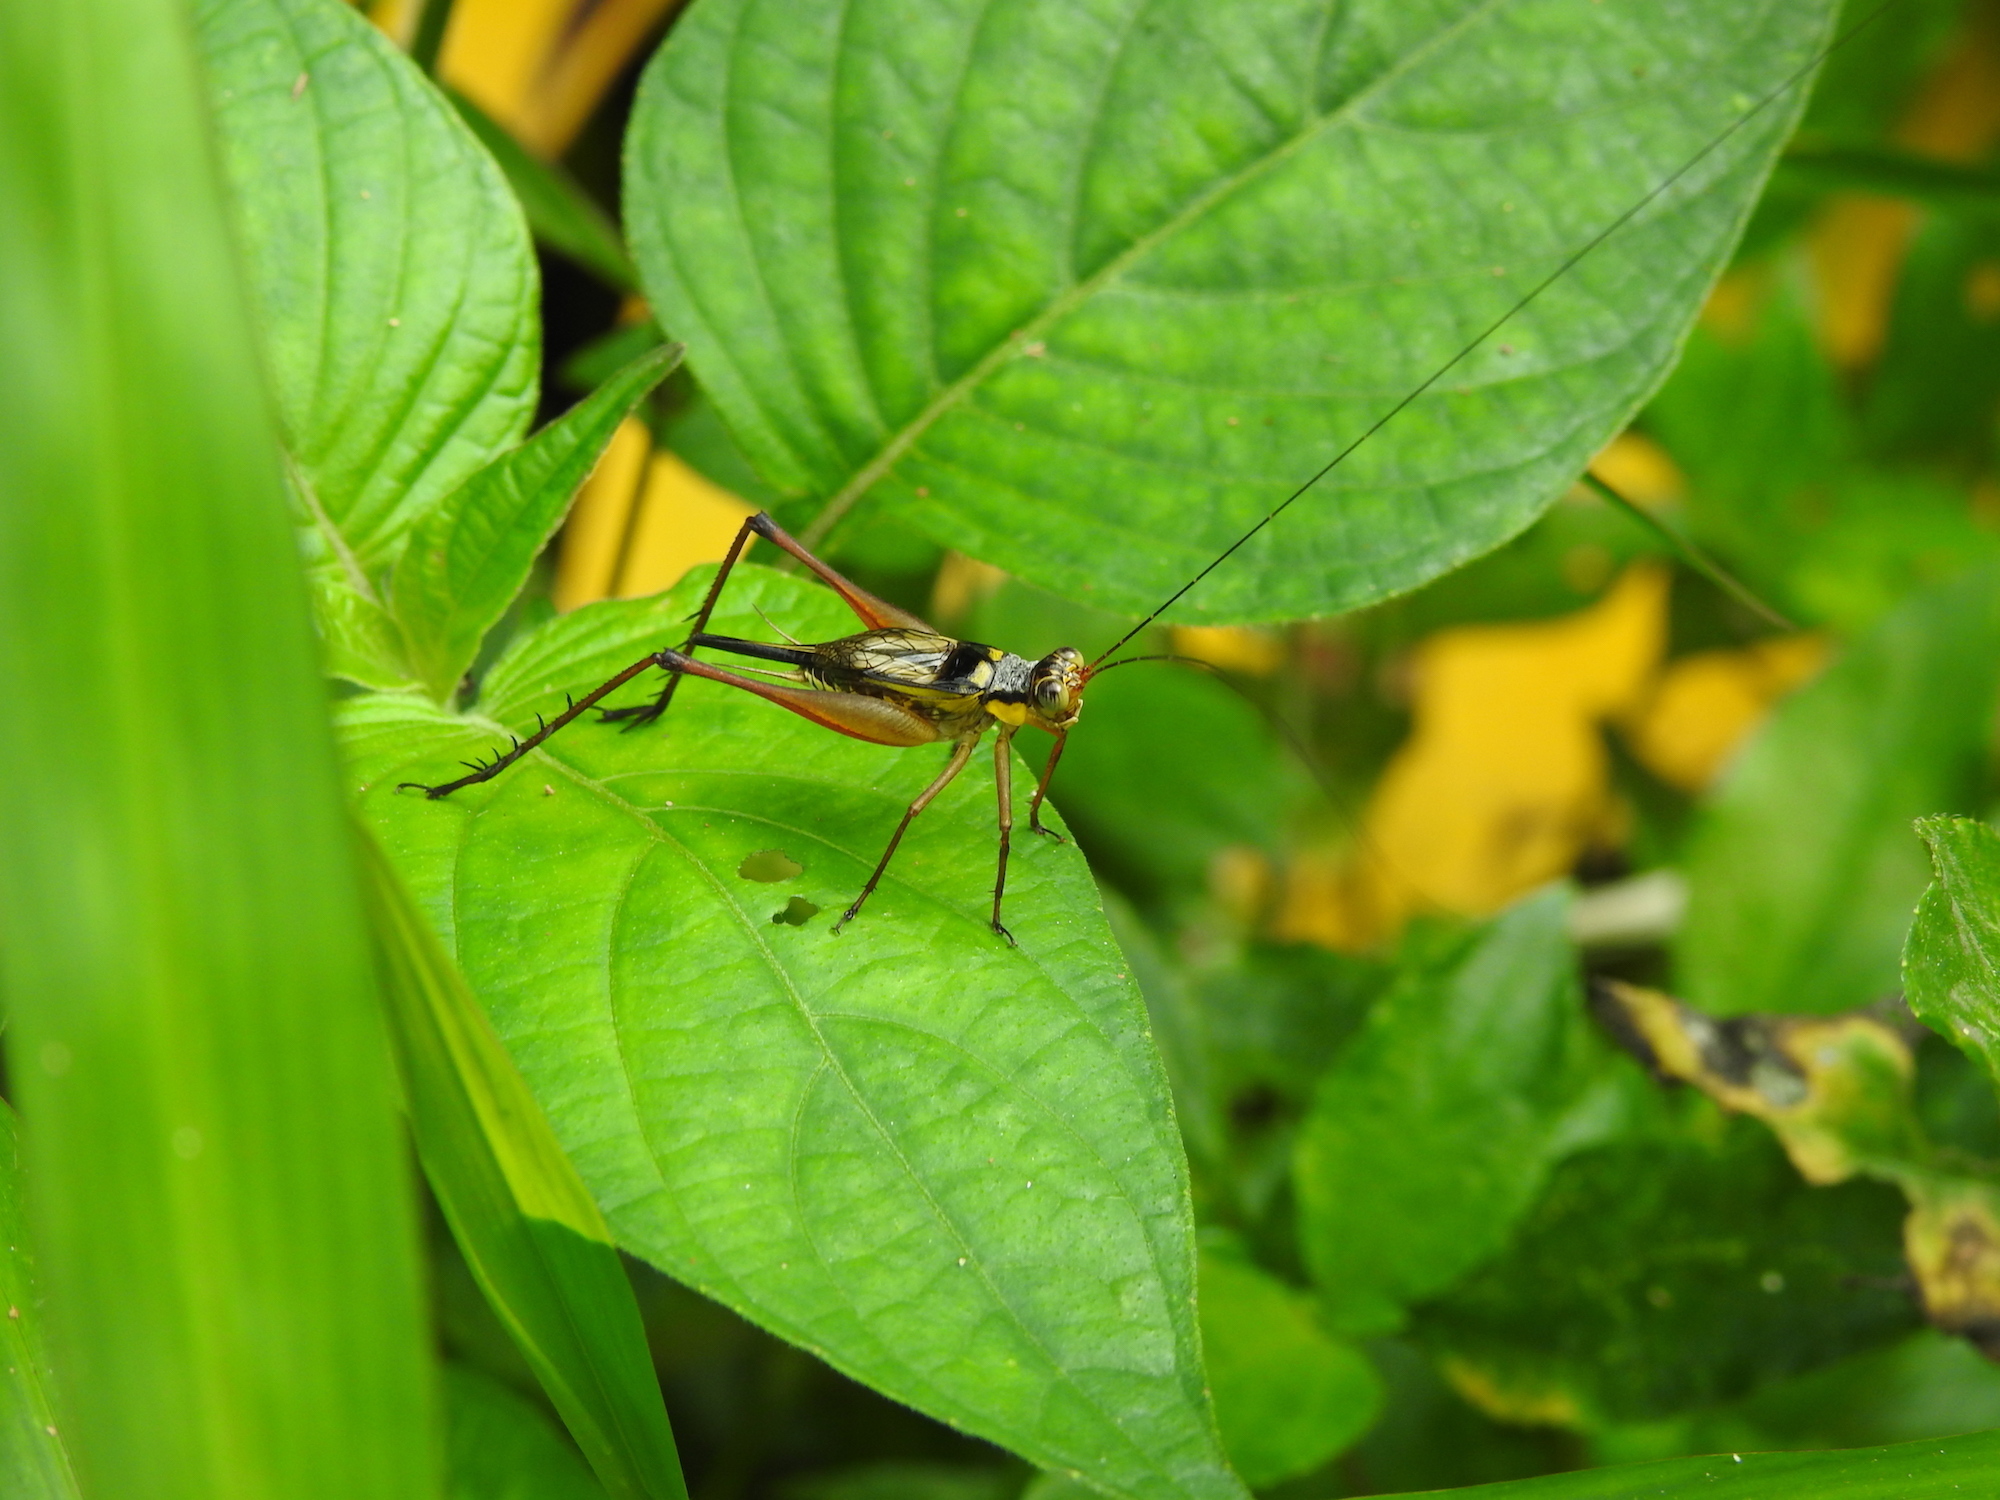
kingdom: Animalia
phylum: Arthropoda
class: Insecta
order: Orthoptera
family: Gryllidae
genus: Nisitrus
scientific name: Nisitrus malaya
